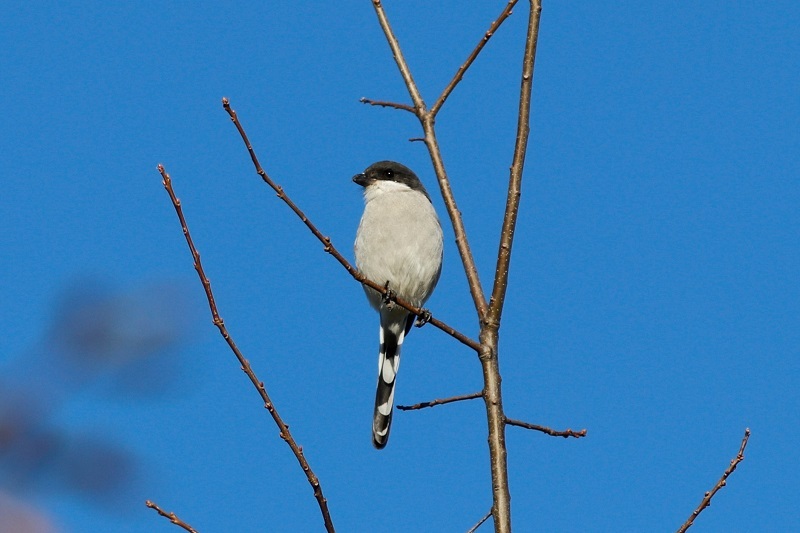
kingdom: Animalia
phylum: Chordata
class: Aves
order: Passeriformes
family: Laniidae
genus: Lanius
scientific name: Lanius collaris
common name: Southern fiscal
